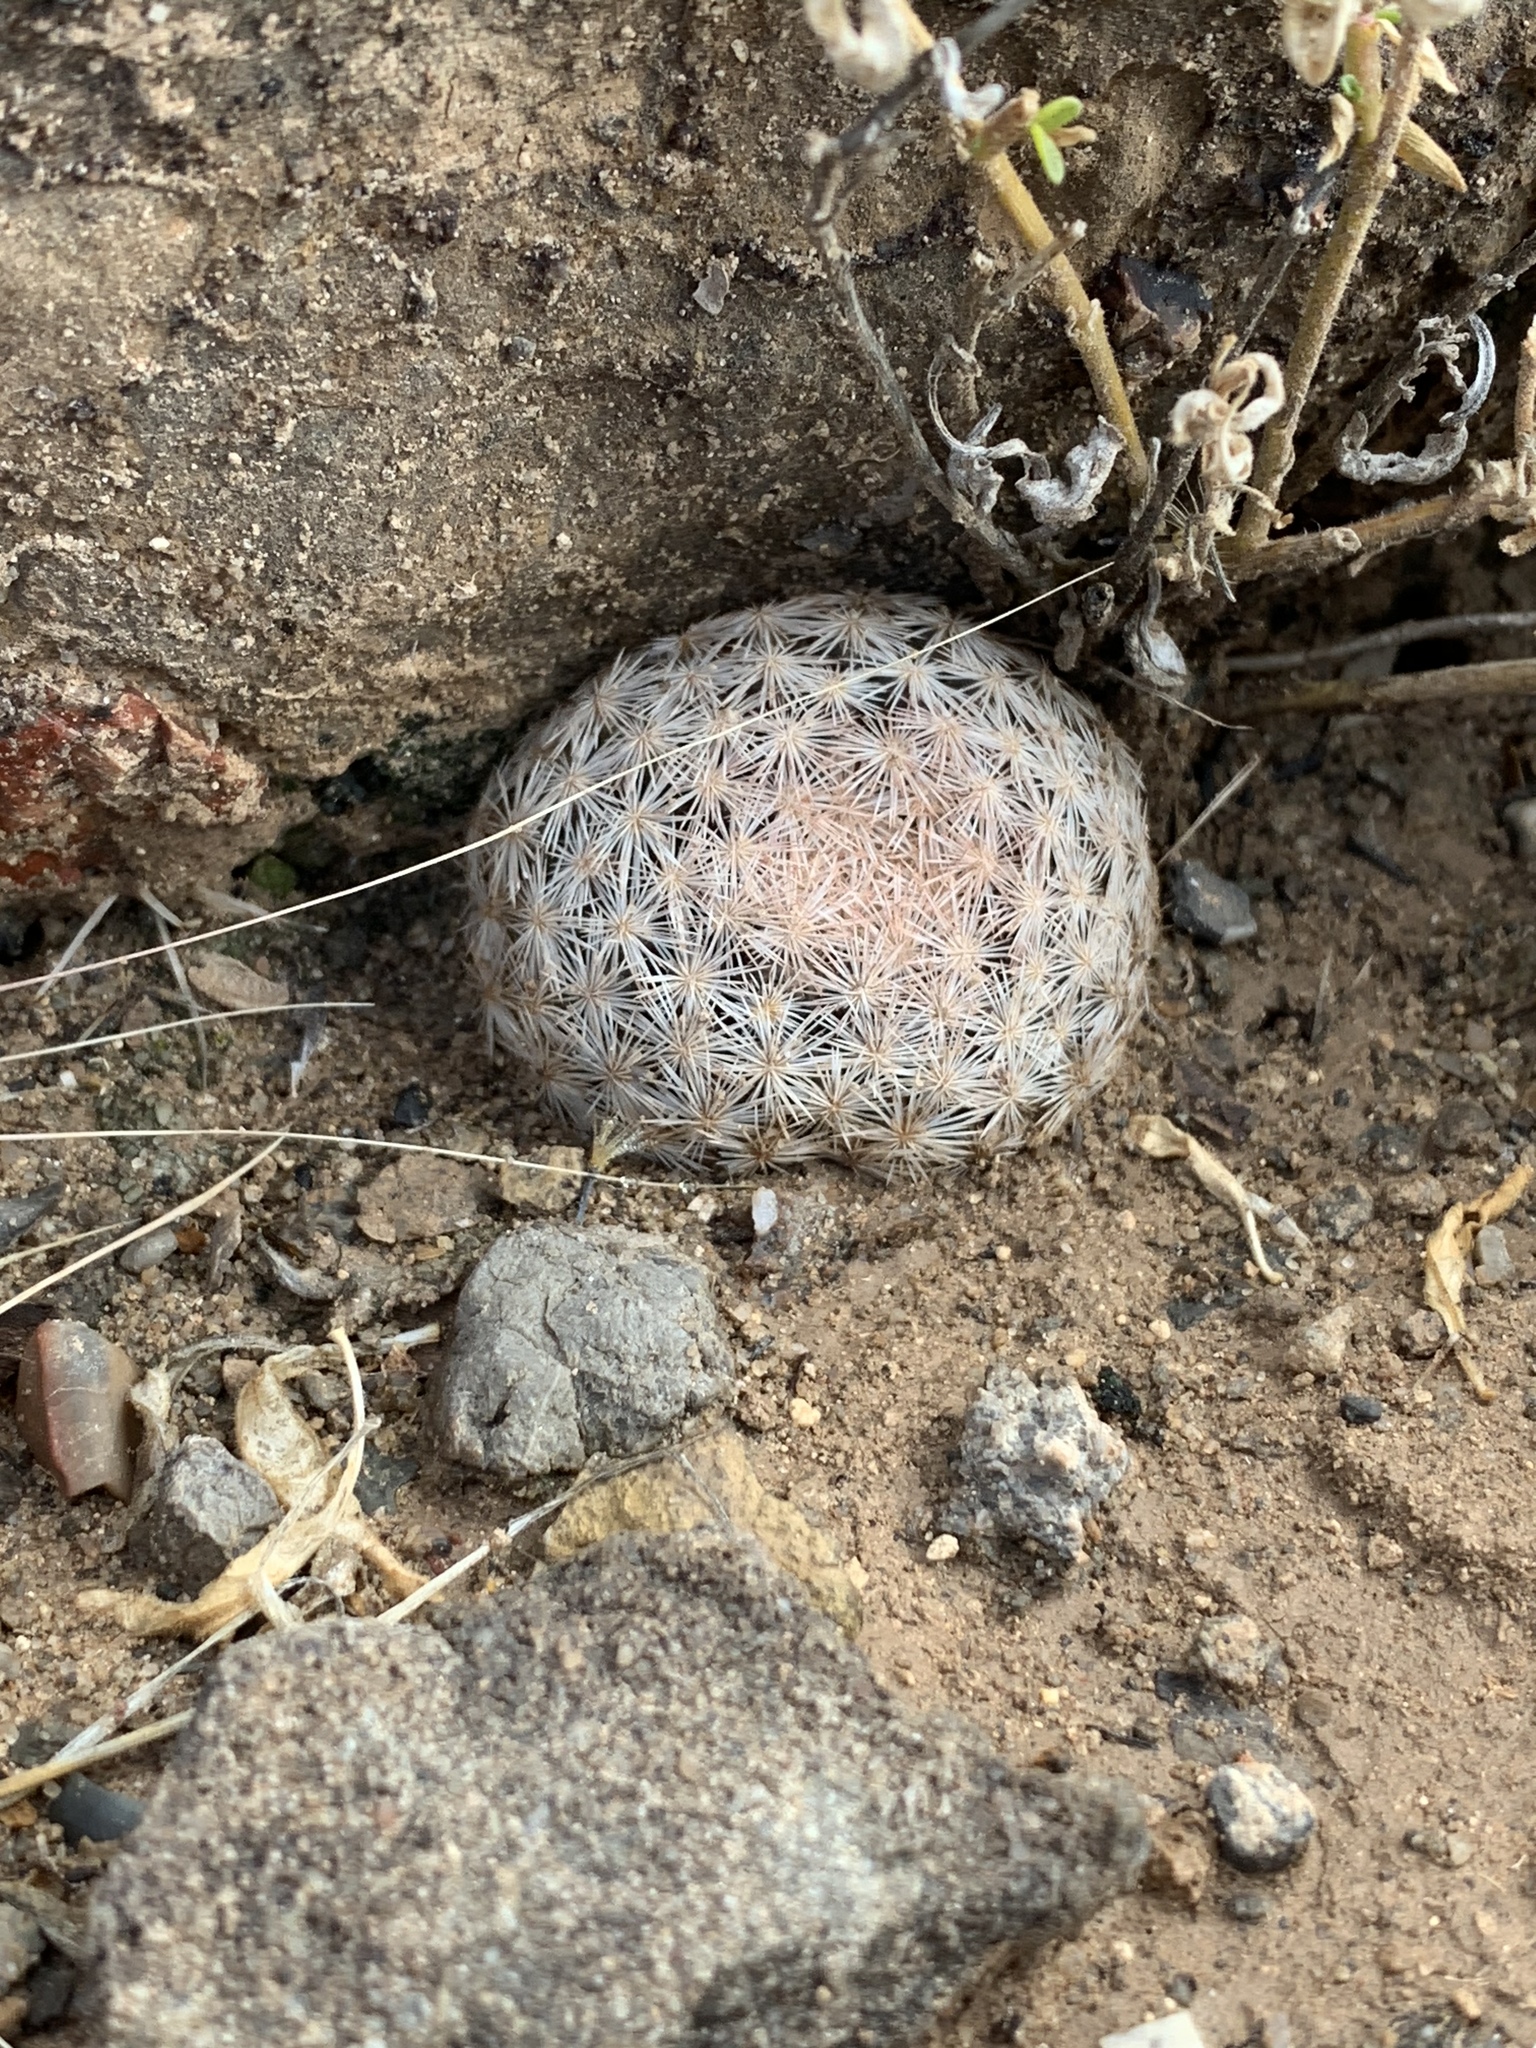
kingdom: Plantae
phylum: Tracheophyta
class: Magnoliopsida
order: Caryophyllales
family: Cactaceae
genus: Mammillaria
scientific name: Mammillaria lasiacantha
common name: Lace-spine nipple cactus
